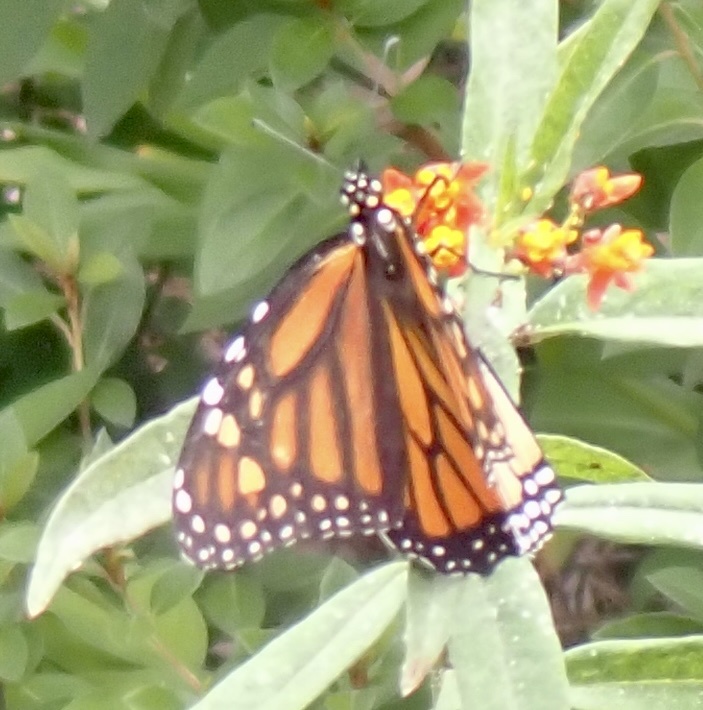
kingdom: Animalia
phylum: Arthropoda
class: Insecta
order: Lepidoptera
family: Nymphalidae
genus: Danaus
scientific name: Danaus plexippus
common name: Monarch
